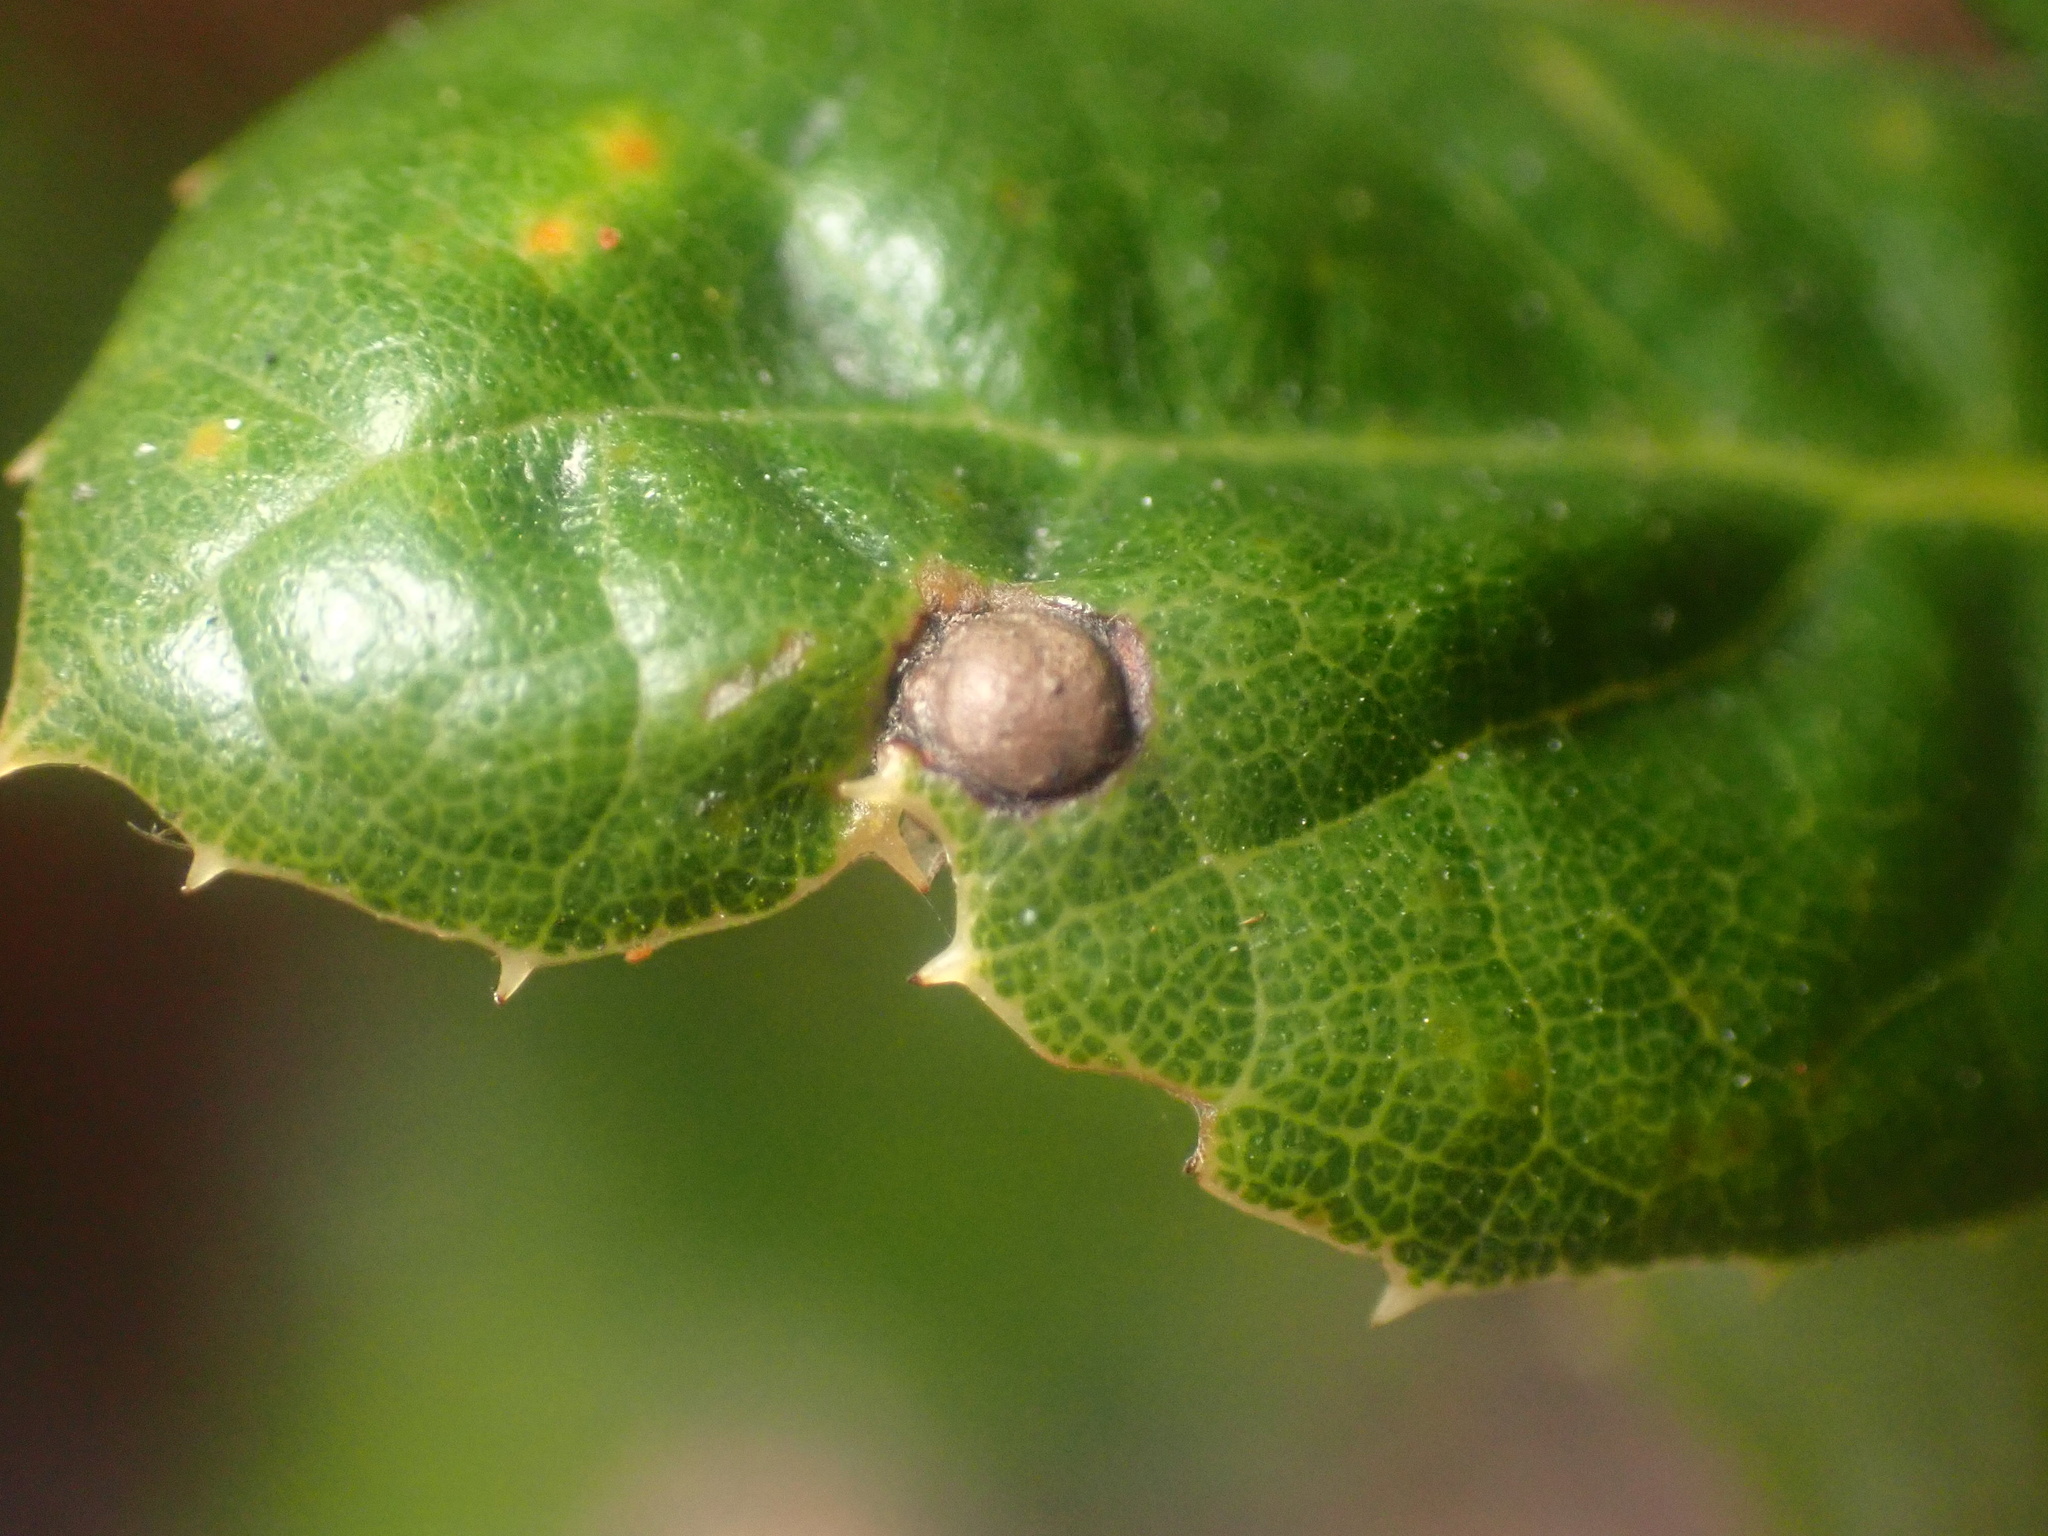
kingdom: Animalia
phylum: Arthropoda
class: Insecta
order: Hymenoptera
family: Cynipidae
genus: Callirhytis
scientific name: Callirhytis
